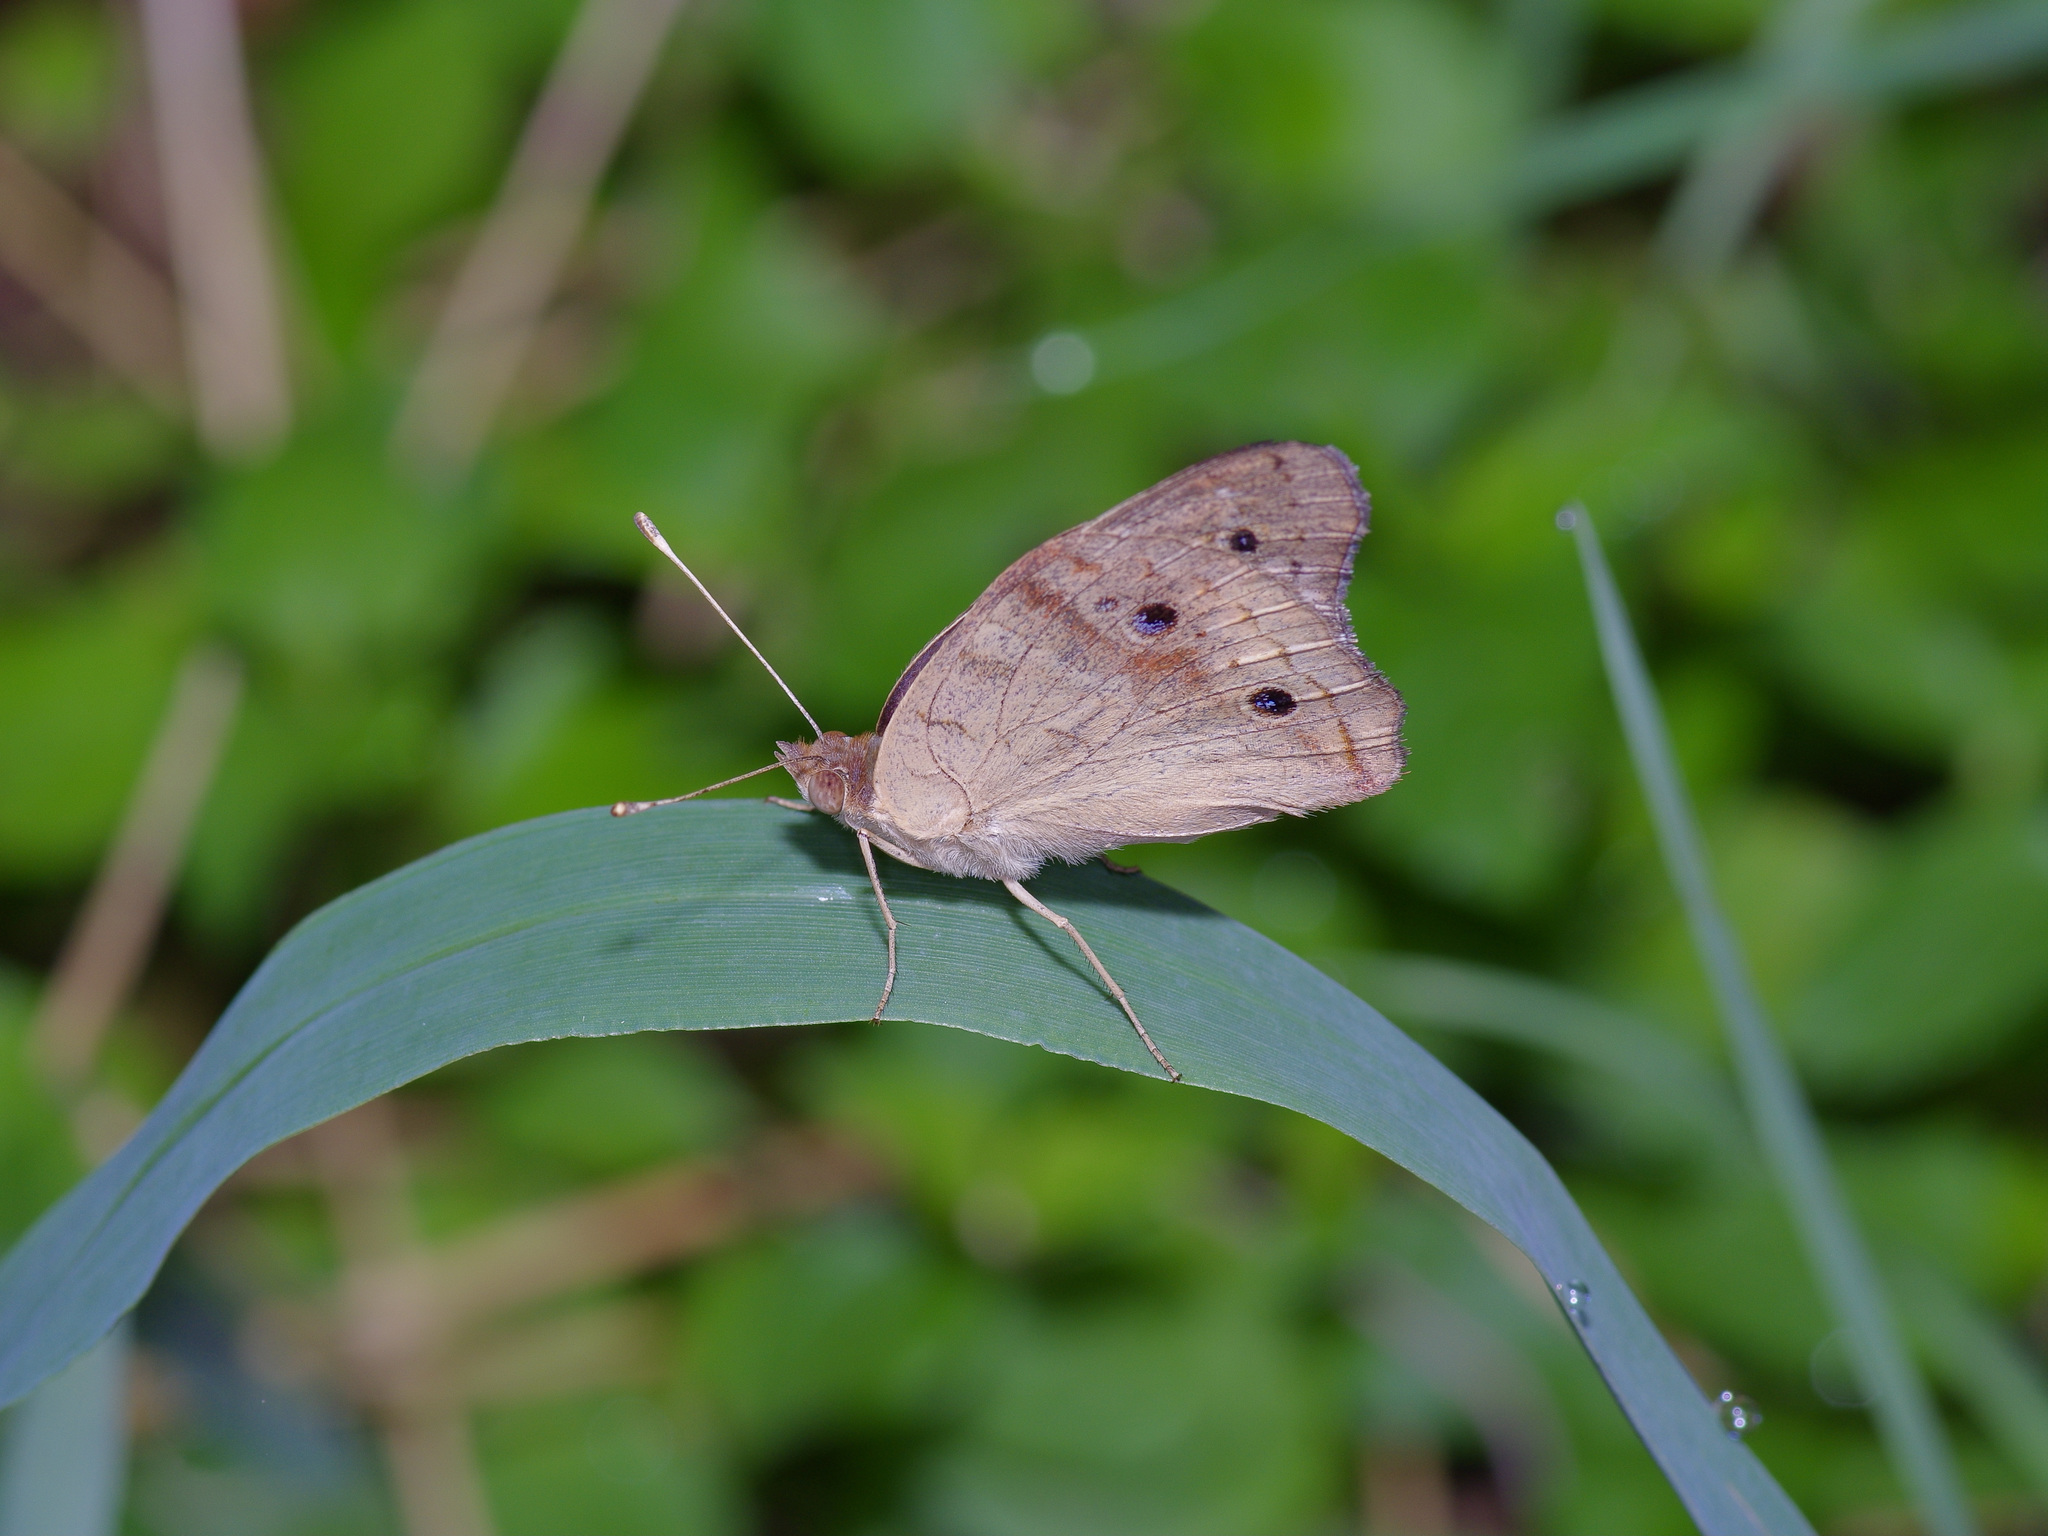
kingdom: Animalia
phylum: Arthropoda
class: Insecta
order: Lepidoptera
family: Nymphalidae
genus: Junonia
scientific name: Junonia coenia
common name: Common buckeye
